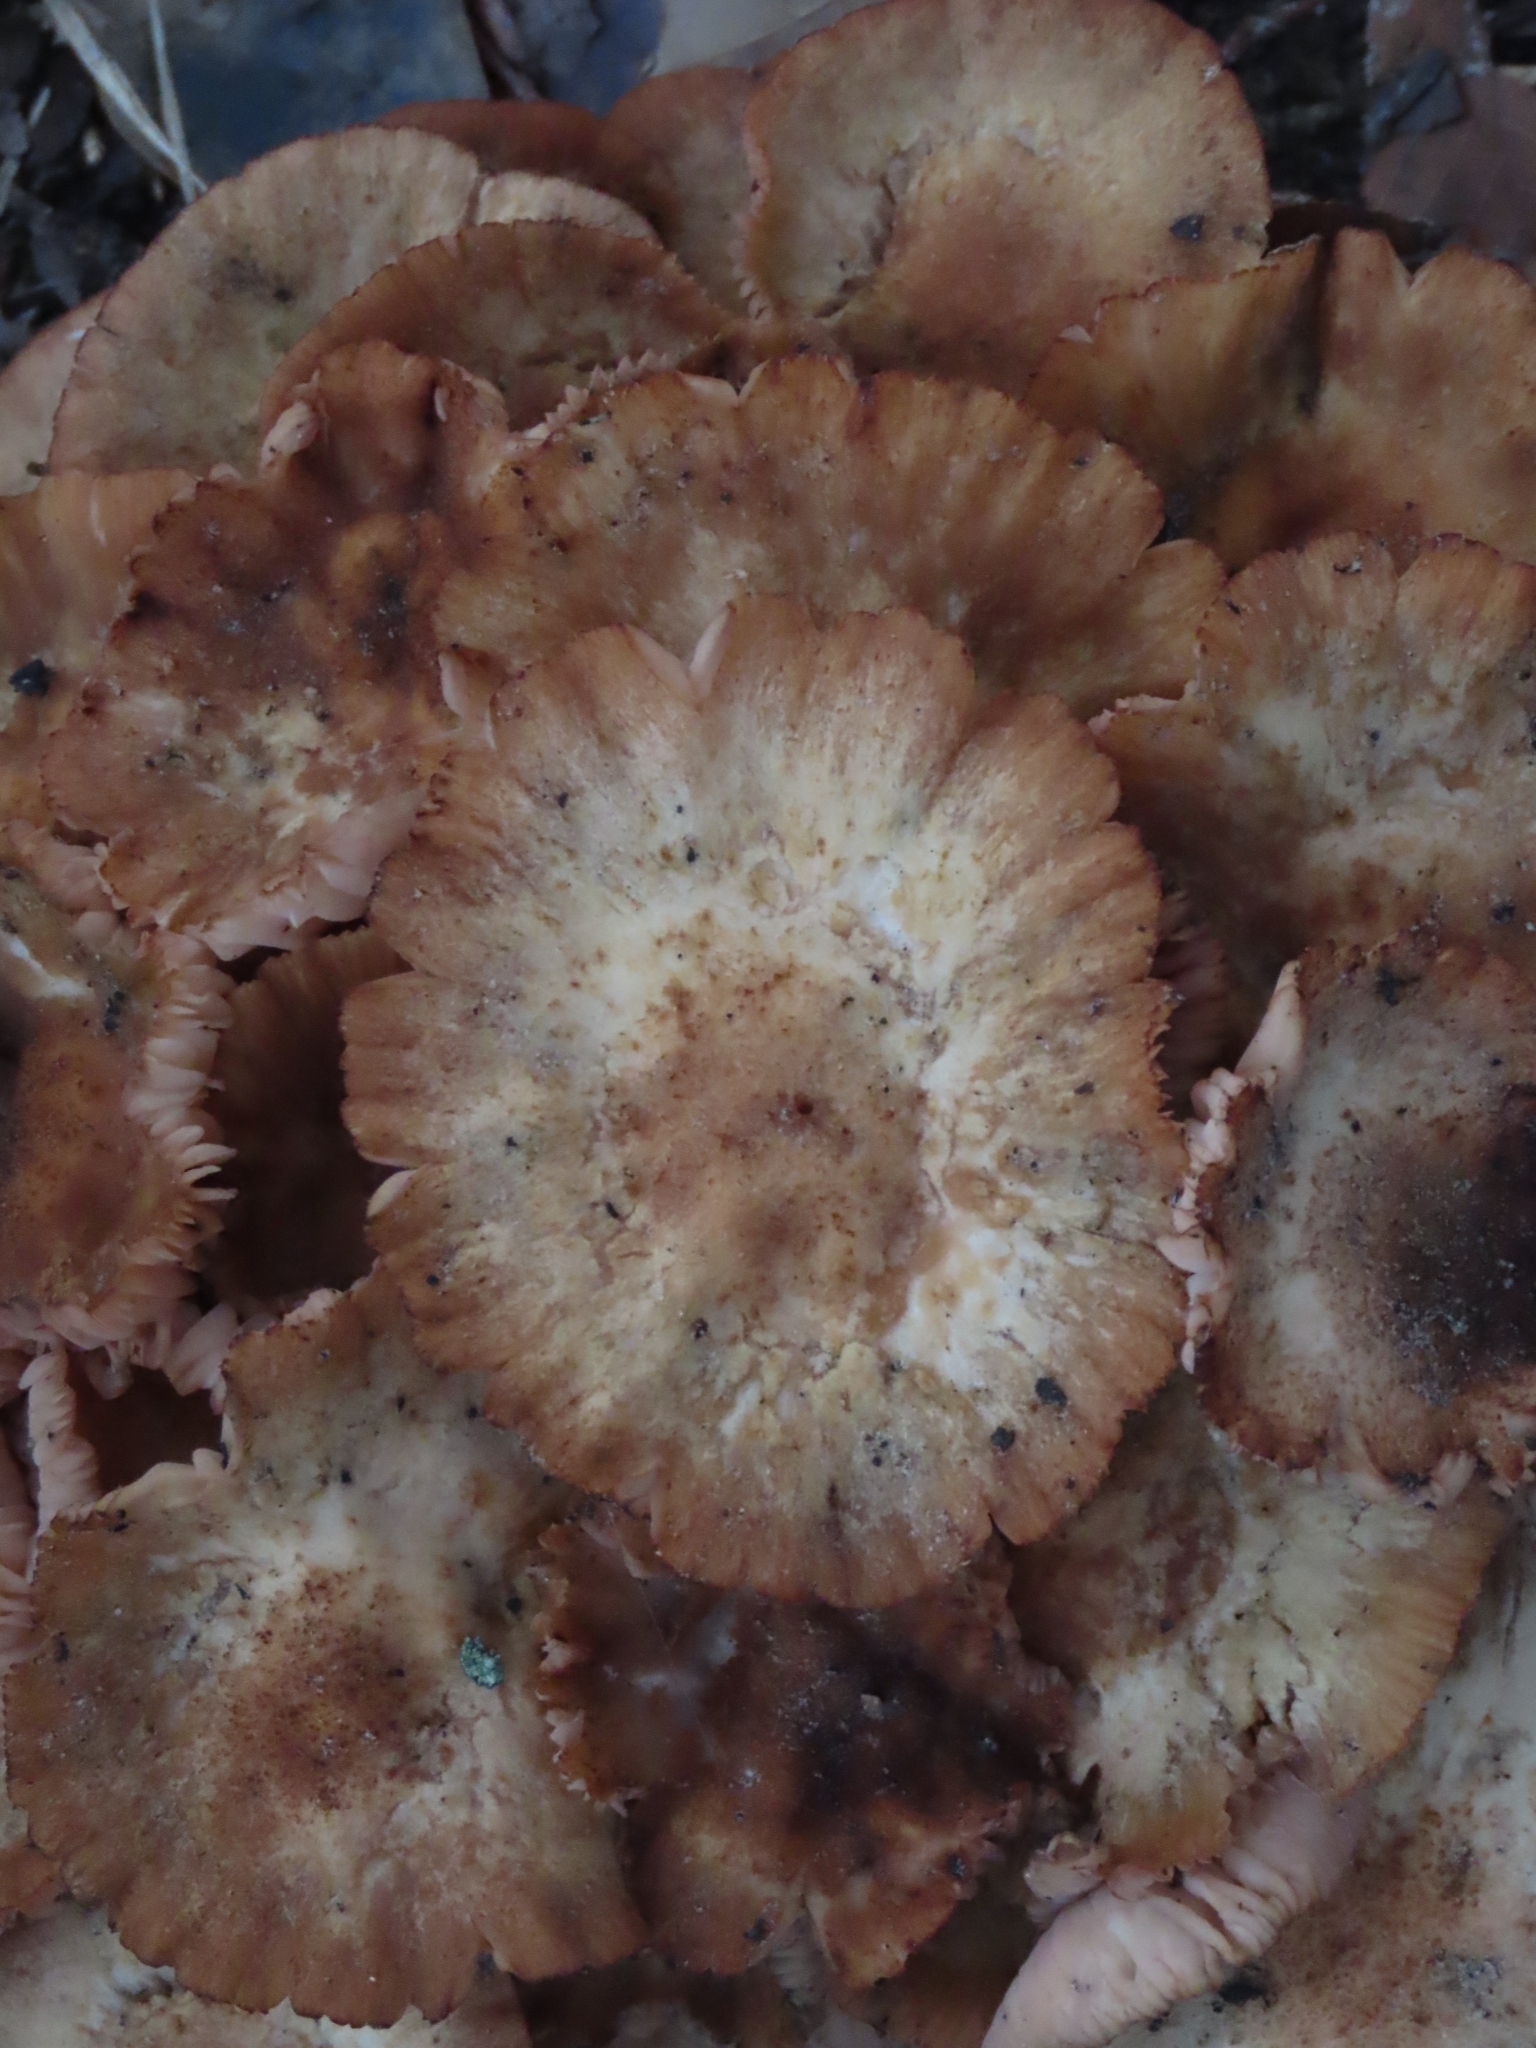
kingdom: Fungi
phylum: Basidiomycota
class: Agaricomycetes
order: Agaricales
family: Physalacriaceae
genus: Desarmillaria
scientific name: Desarmillaria caespitosa
